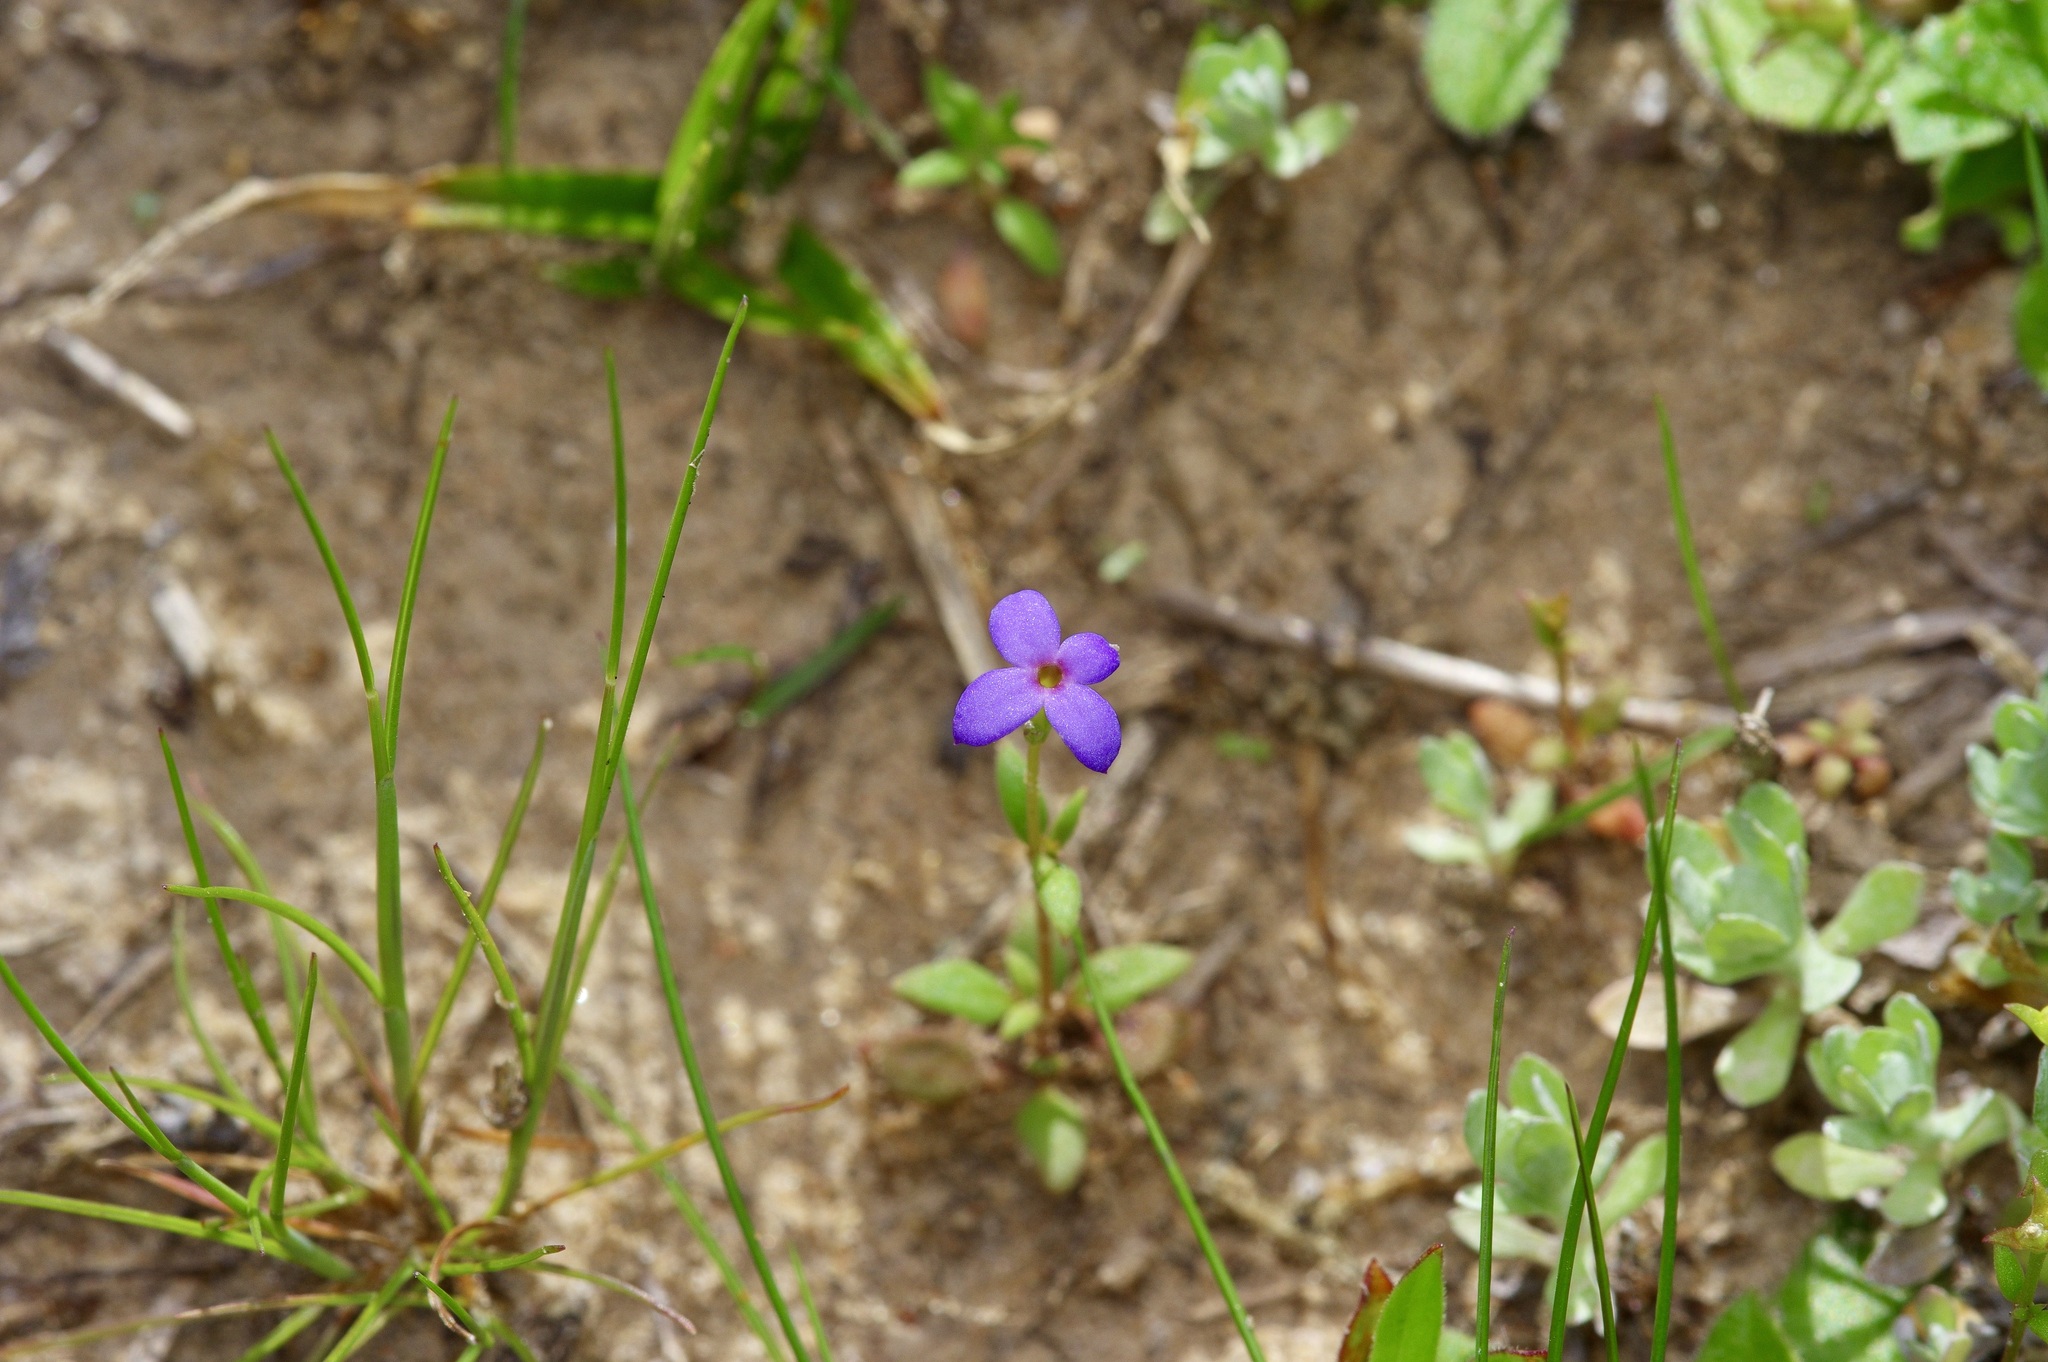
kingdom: Plantae
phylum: Tracheophyta
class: Magnoliopsida
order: Gentianales
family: Rubiaceae
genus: Houstonia
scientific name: Houstonia pusilla
